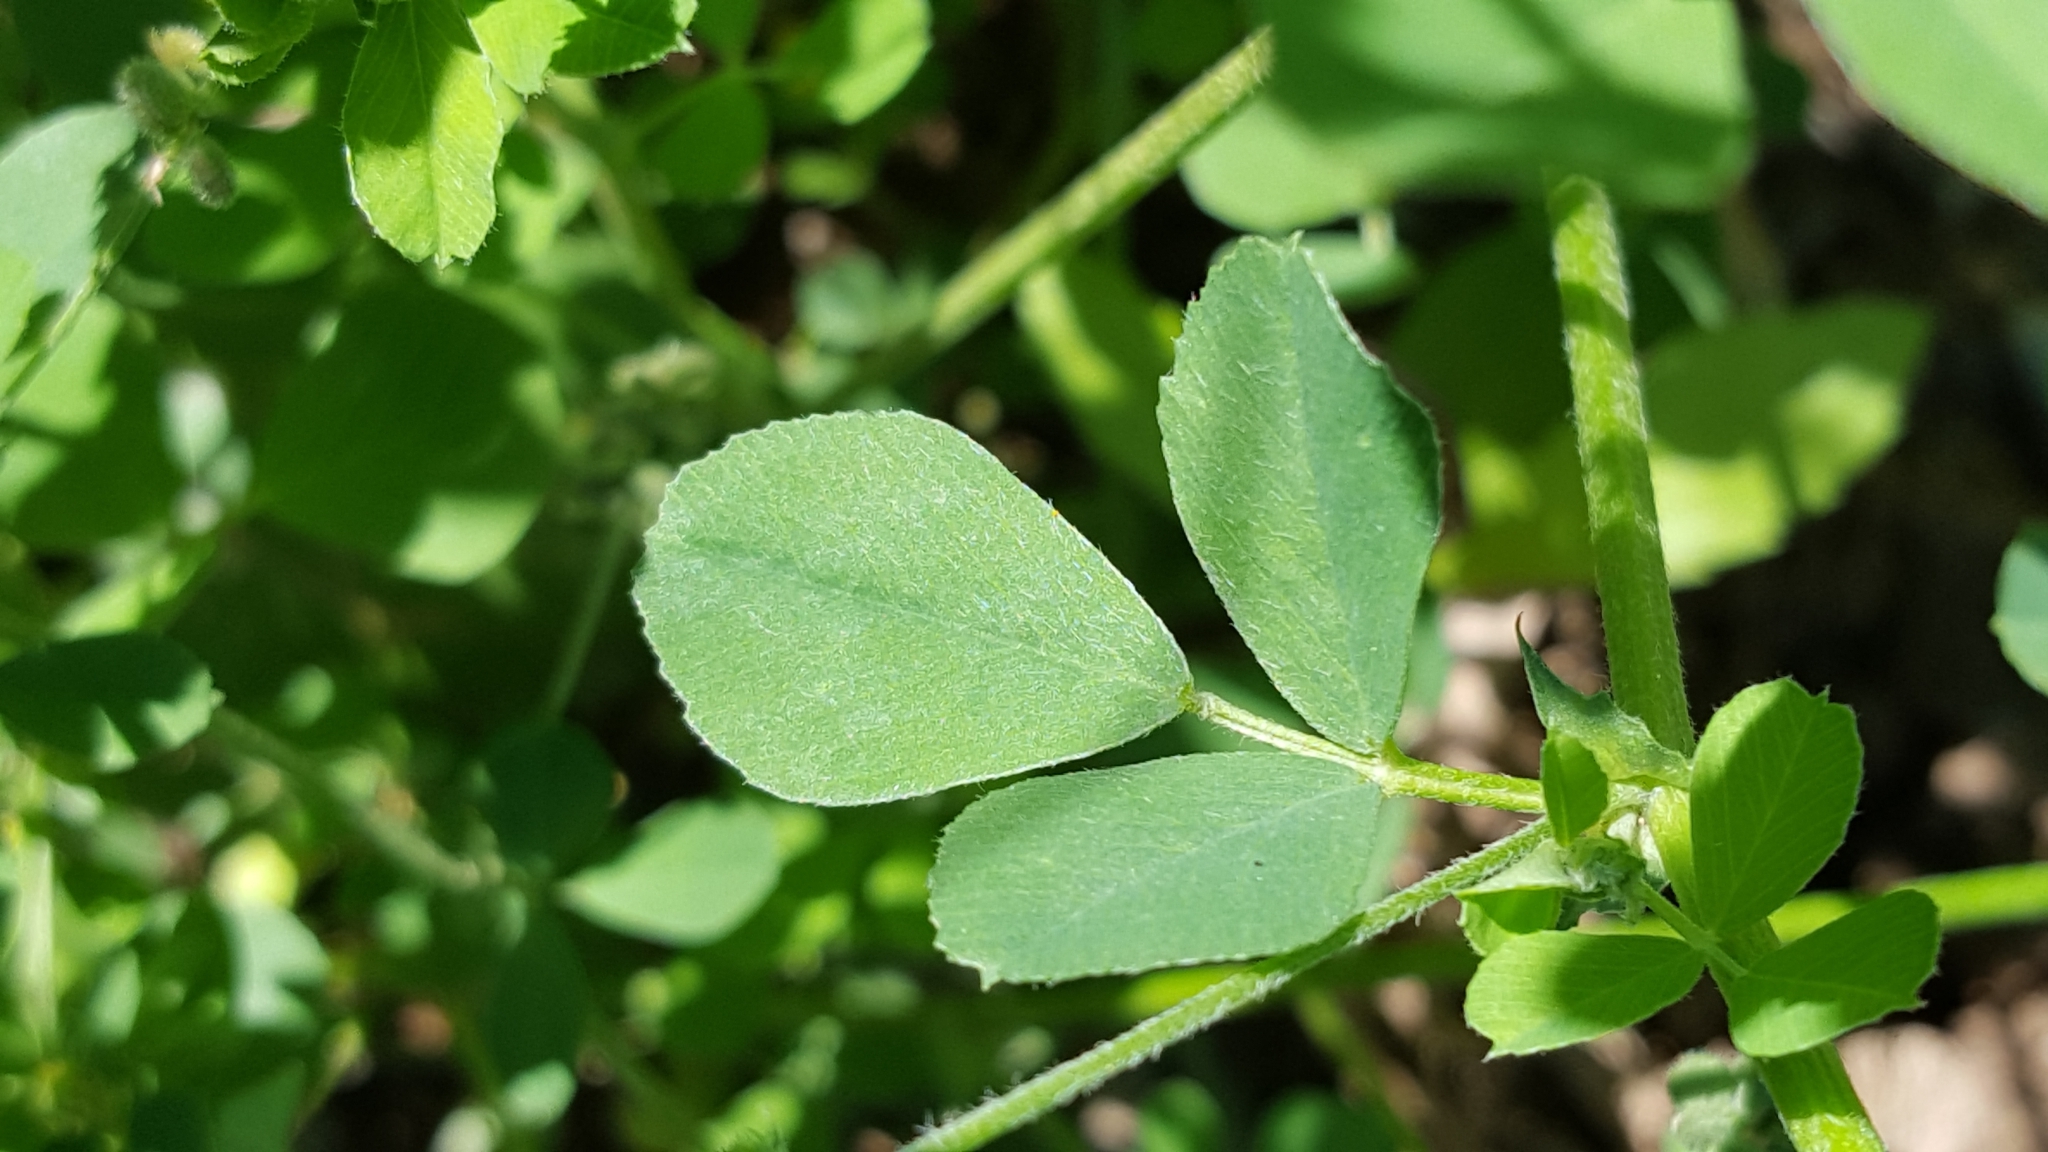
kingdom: Plantae
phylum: Tracheophyta
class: Magnoliopsida
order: Fabales
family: Fabaceae
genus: Medicago
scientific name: Medicago lupulina
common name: Black medick
